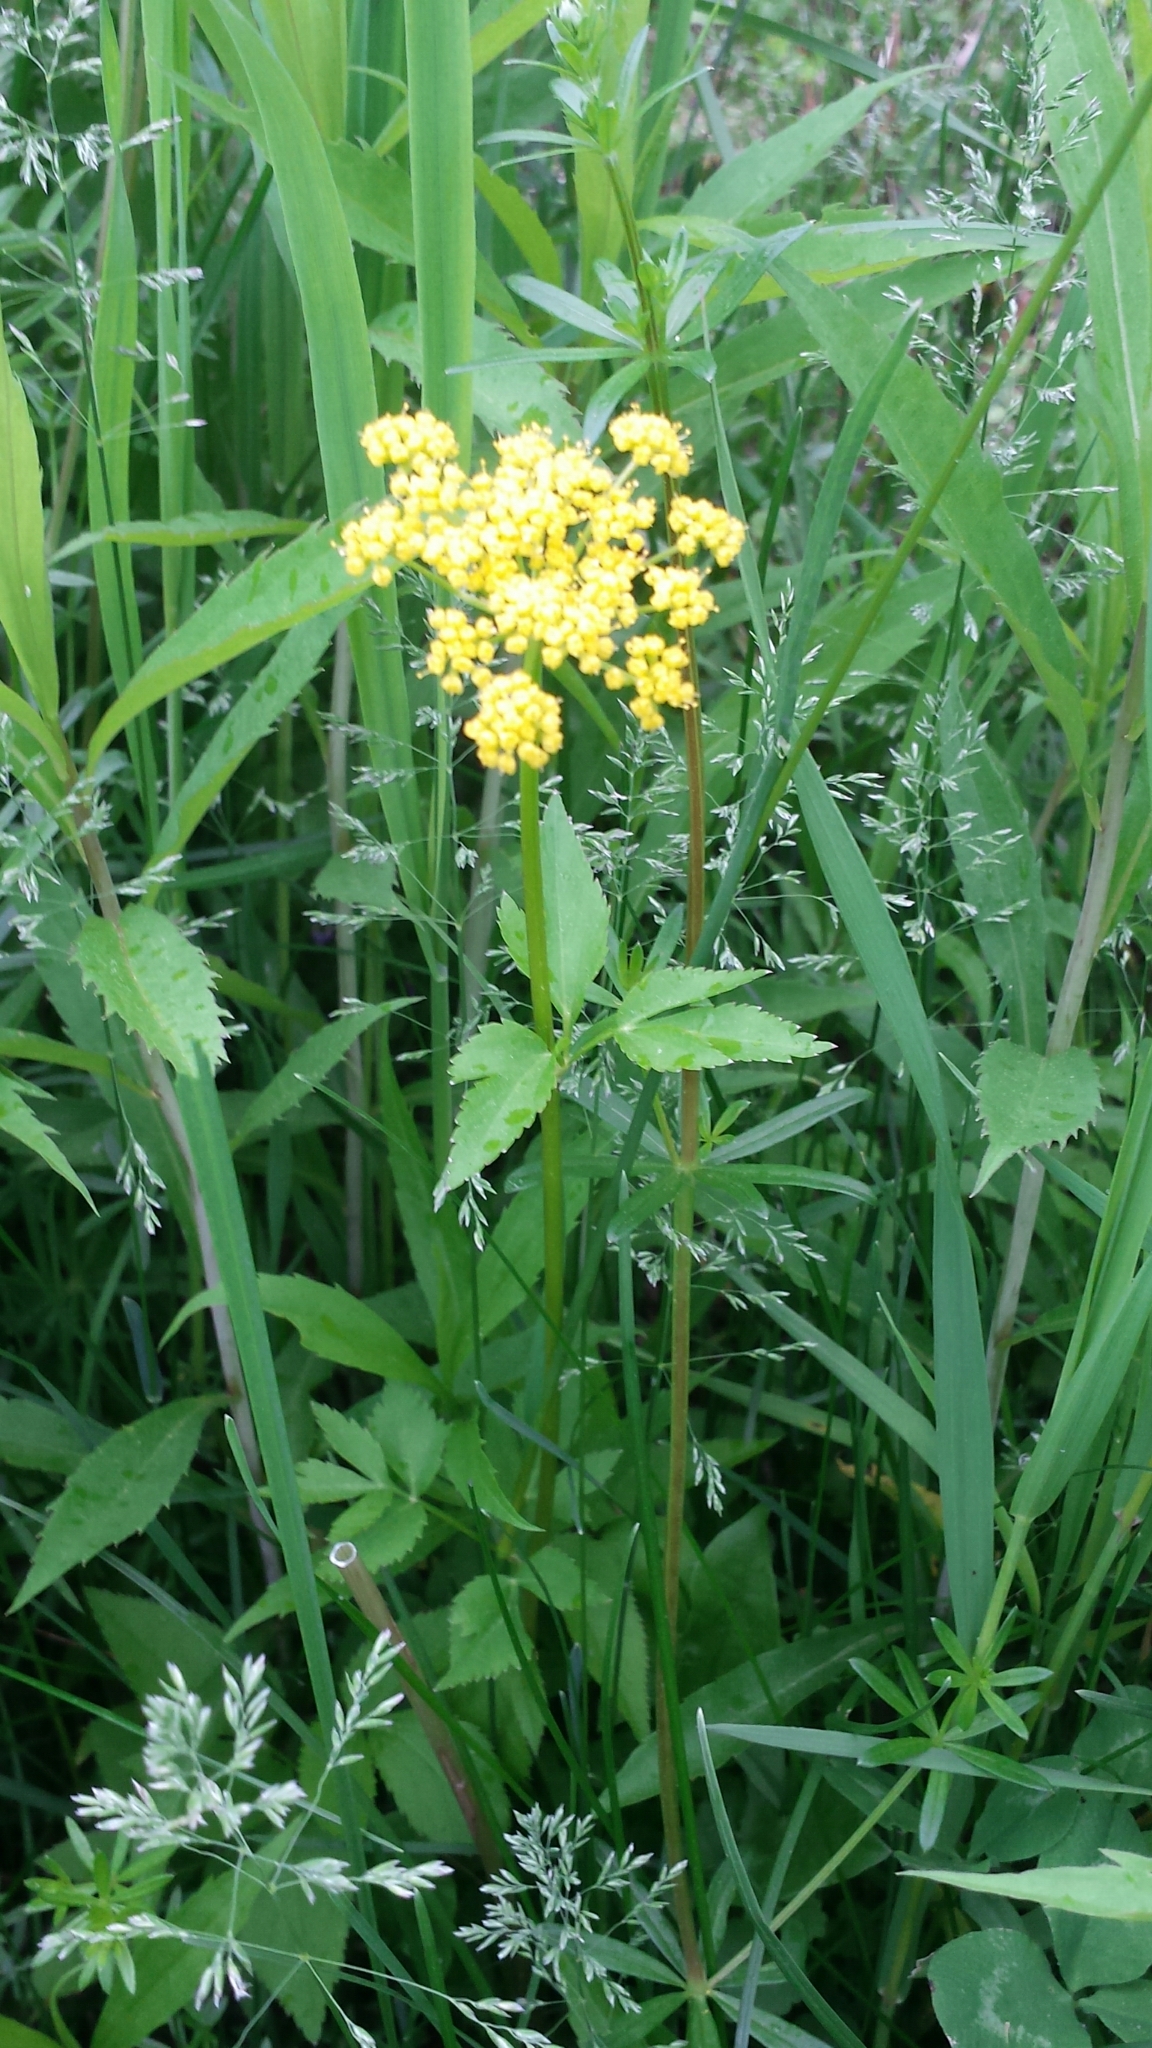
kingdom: Plantae
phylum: Tracheophyta
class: Magnoliopsida
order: Apiales
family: Apiaceae
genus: Zizia
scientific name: Zizia aurea
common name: Golden alexanders
